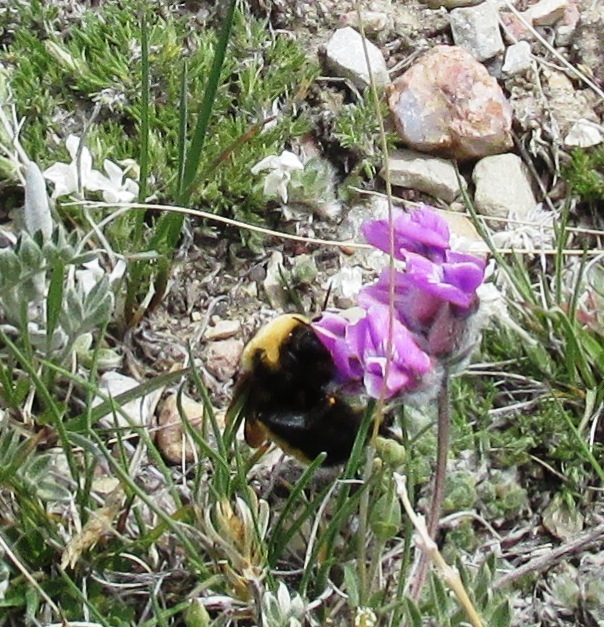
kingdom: Animalia
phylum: Arthropoda
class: Insecta
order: Hymenoptera
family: Apidae
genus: Bombus
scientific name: Bombus nevadensis
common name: Nevada bumble bee
